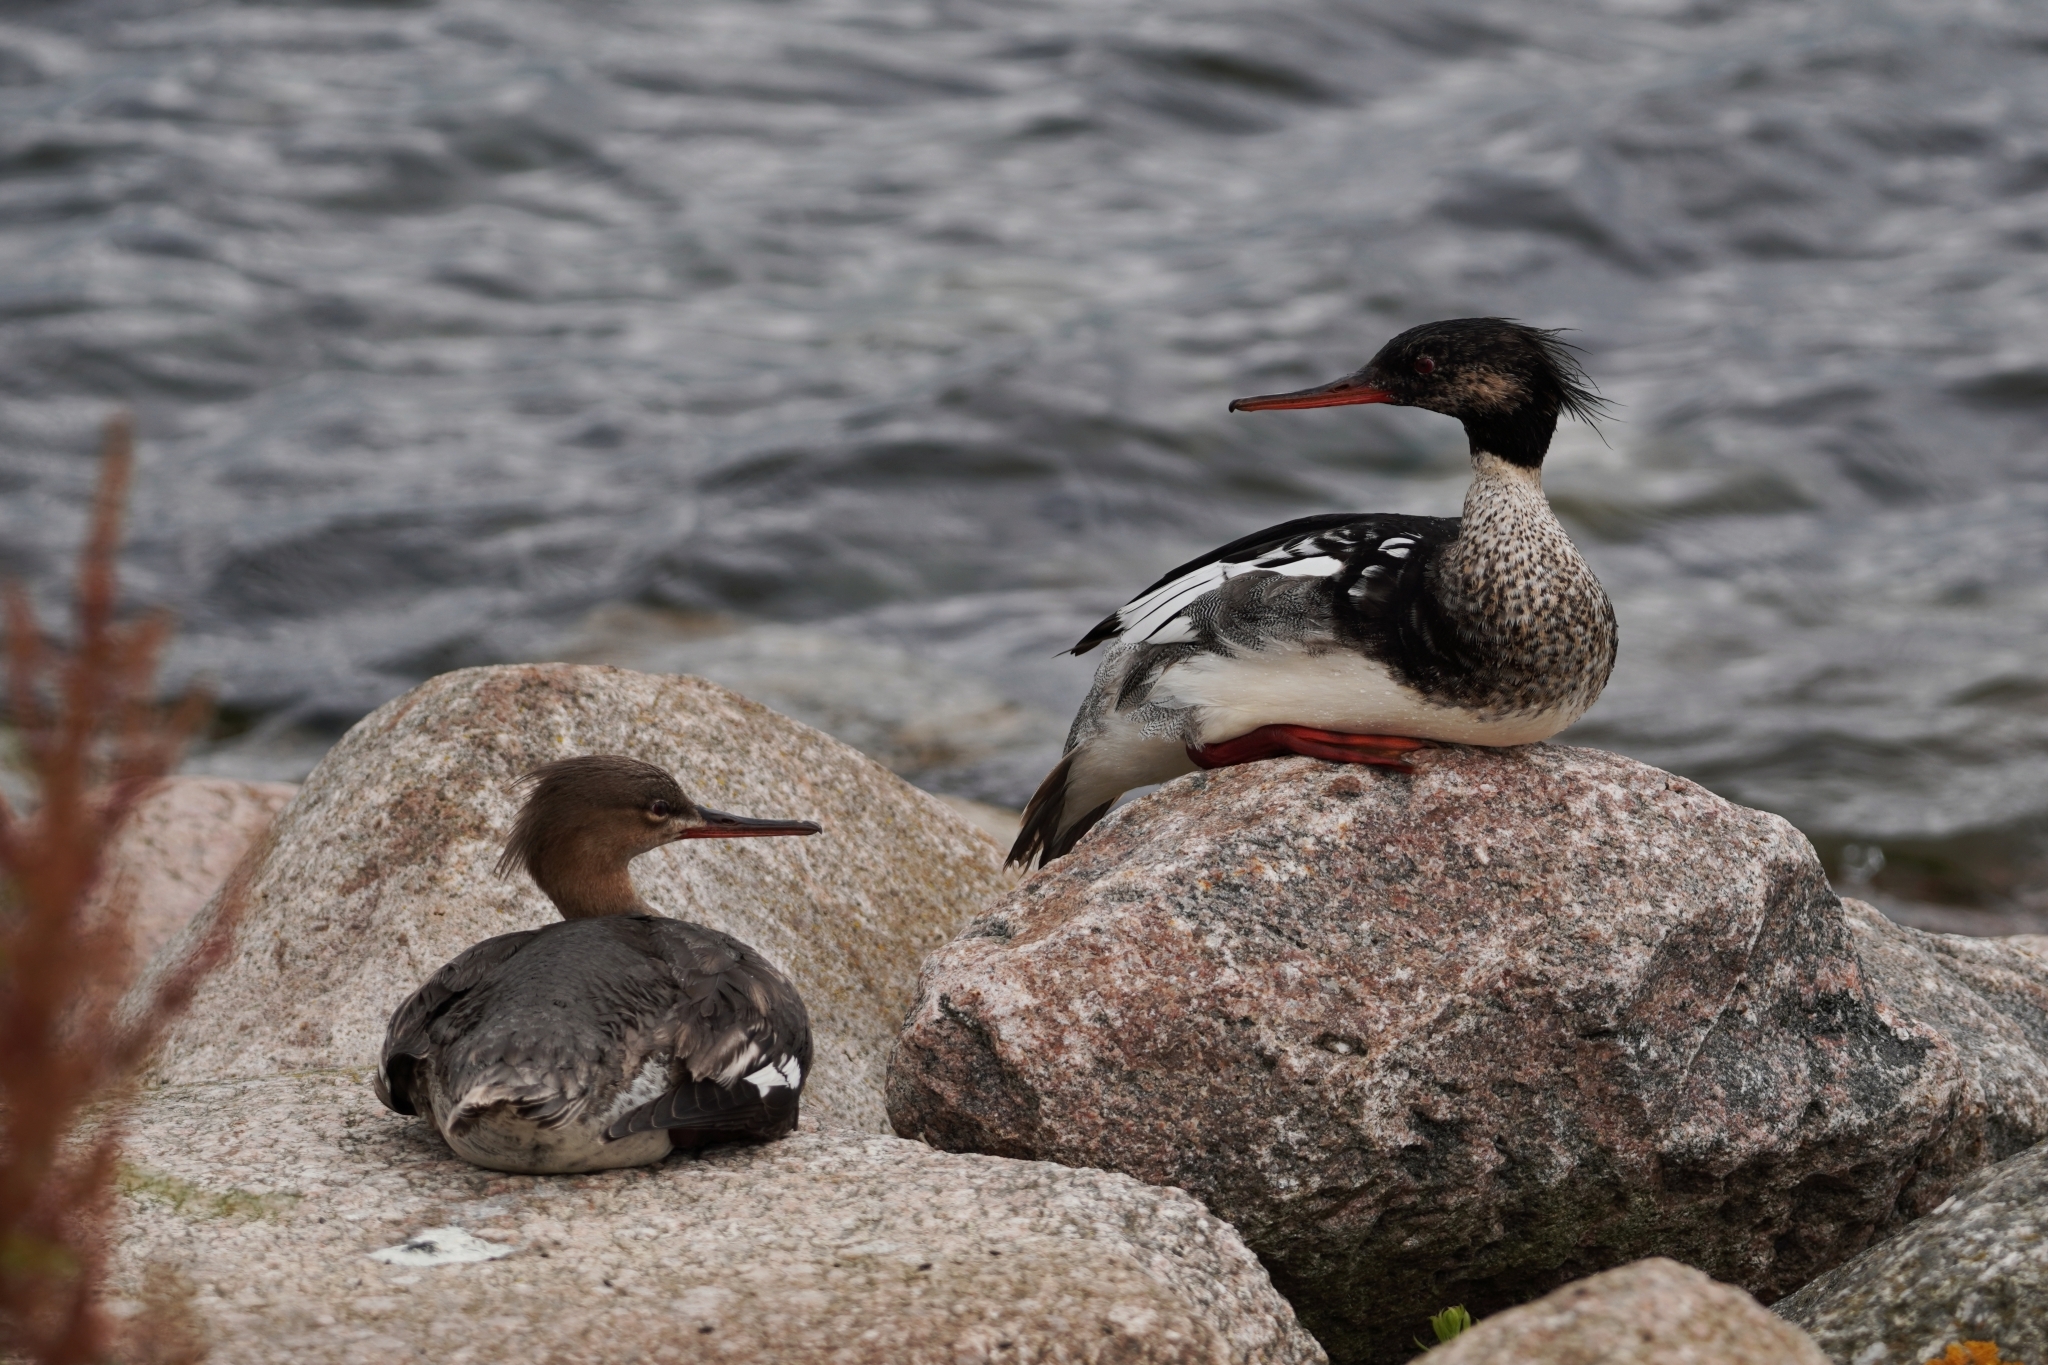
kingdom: Animalia
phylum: Chordata
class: Aves
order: Anseriformes
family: Anatidae
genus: Mergus
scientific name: Mergus serrator
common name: Red-breasted merganser
